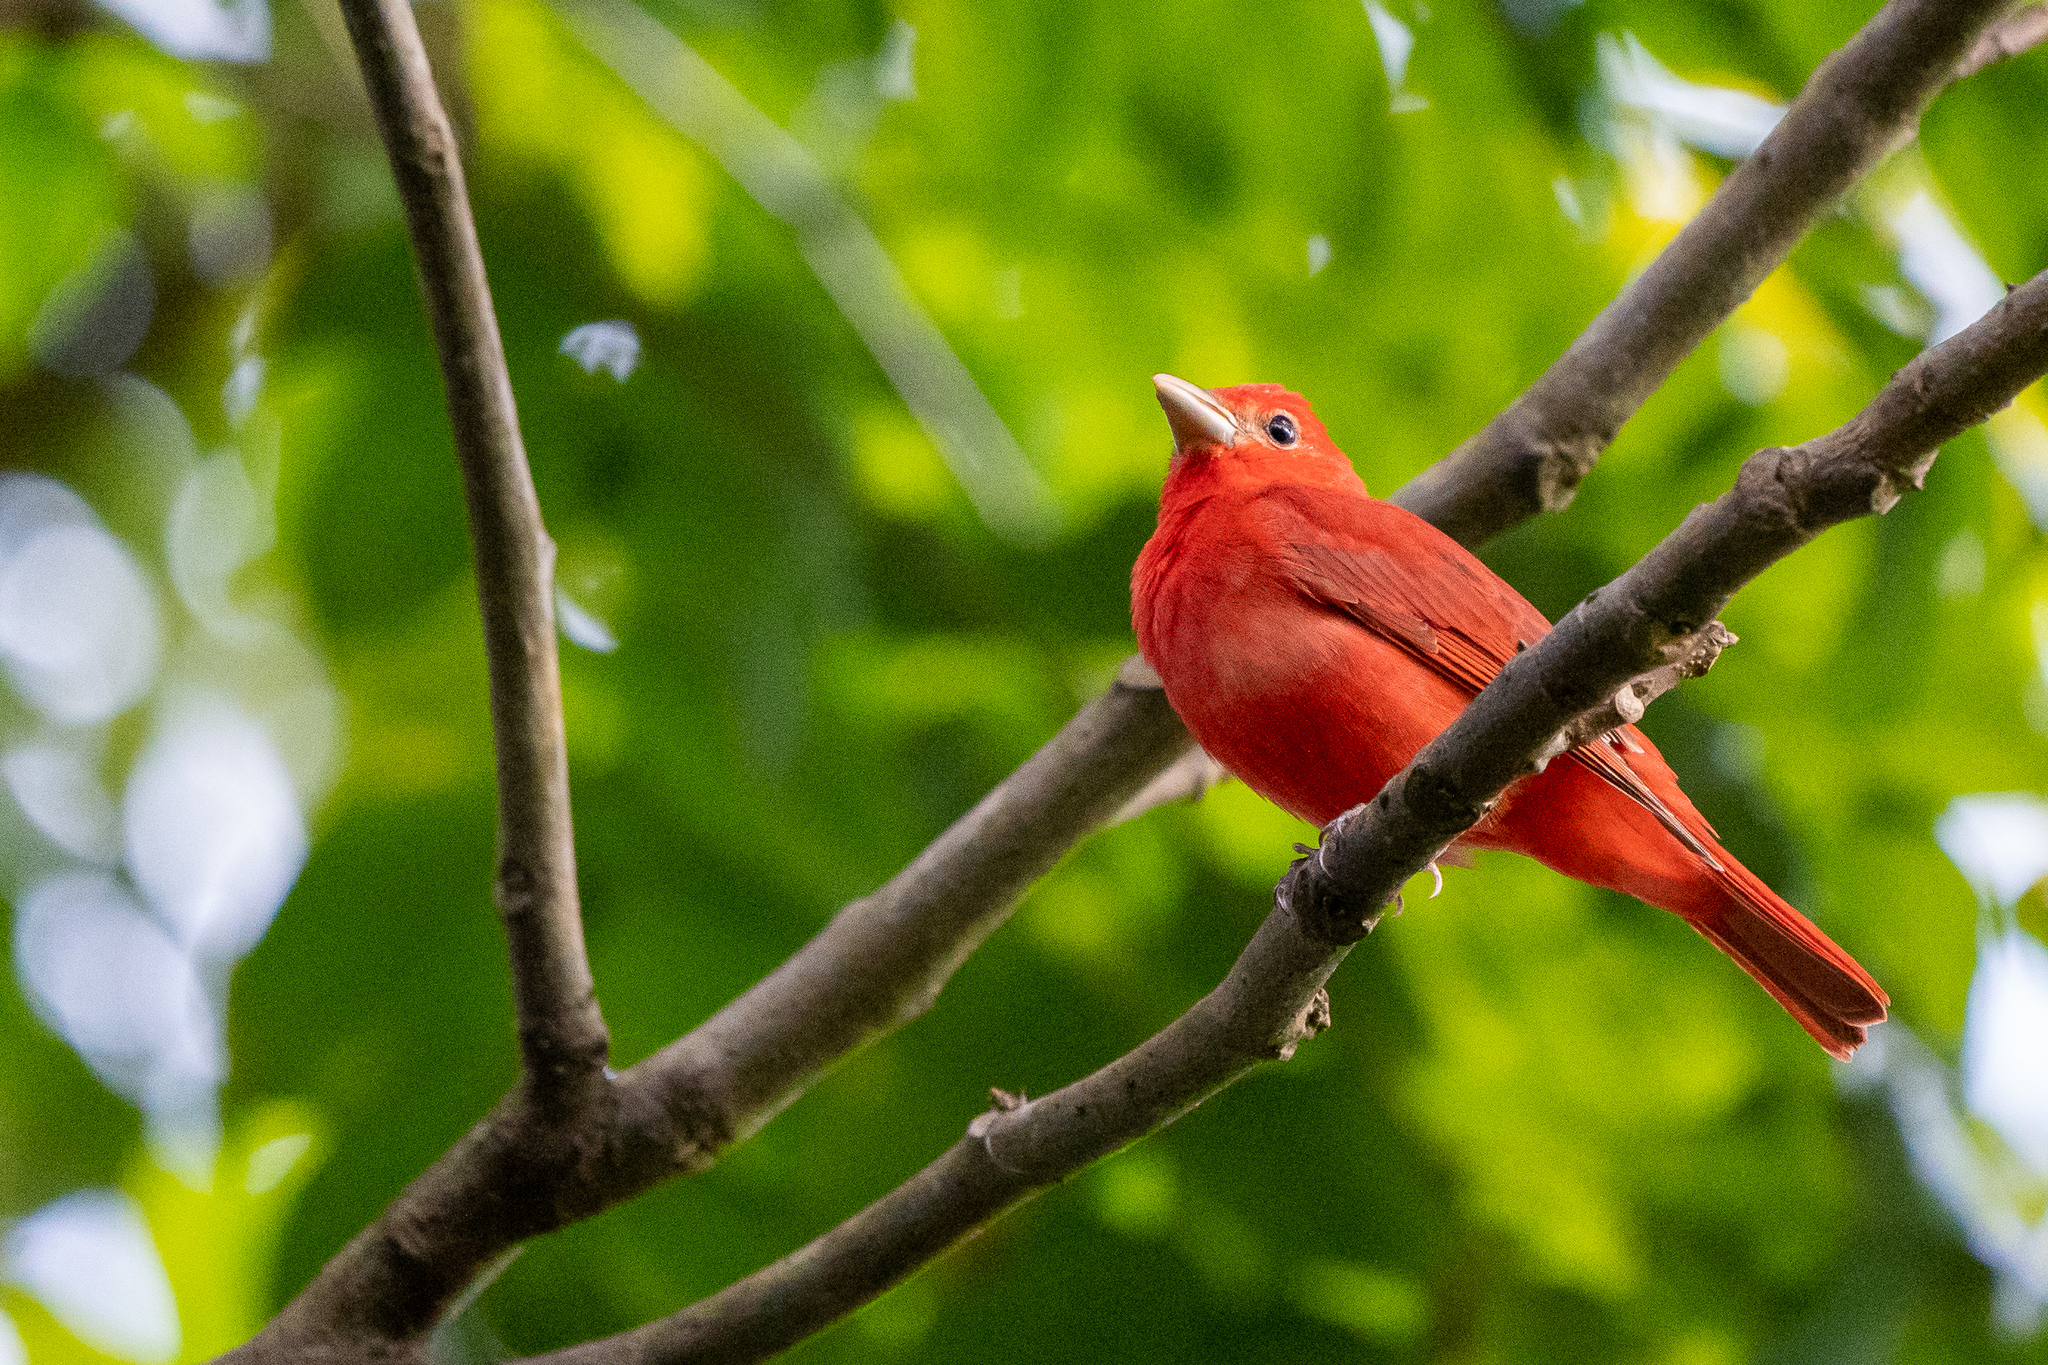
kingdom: Animalia
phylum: Chordata
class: Aves
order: Passeriformes
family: Cardinalidae
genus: Piranga
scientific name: Piranga rubra
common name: Summer tanager
